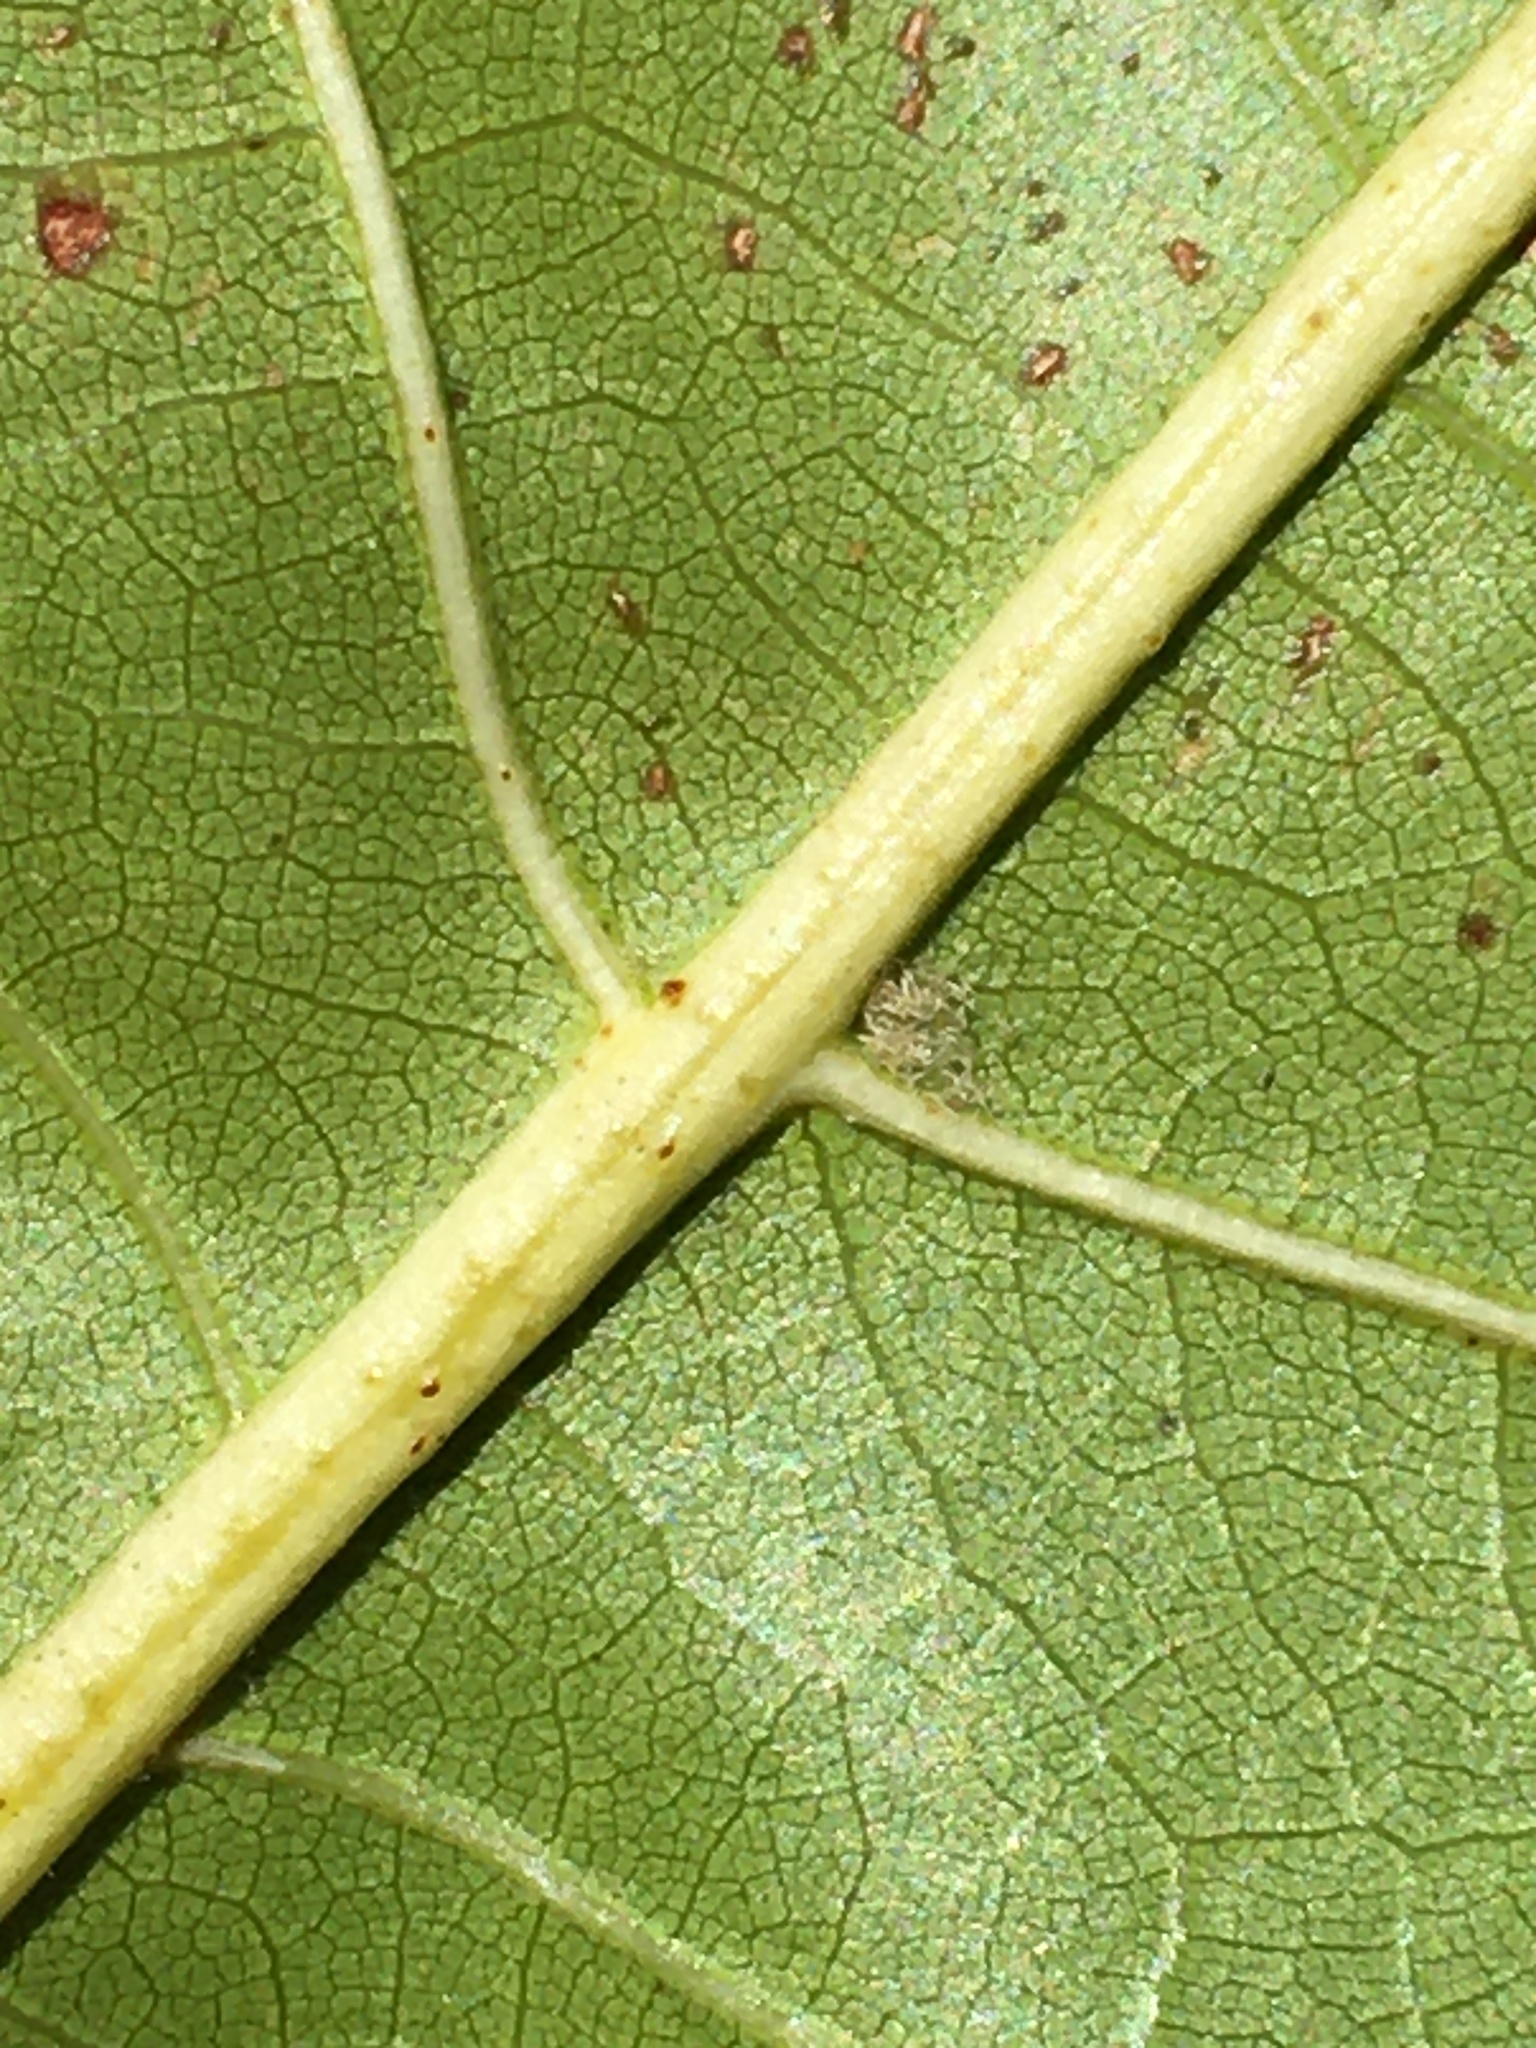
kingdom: Plantae
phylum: Tracheophyta
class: Magnoliopsida
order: Fagales
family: Fagaceae
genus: Quercus
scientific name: Quercus velutina
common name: Black oak
